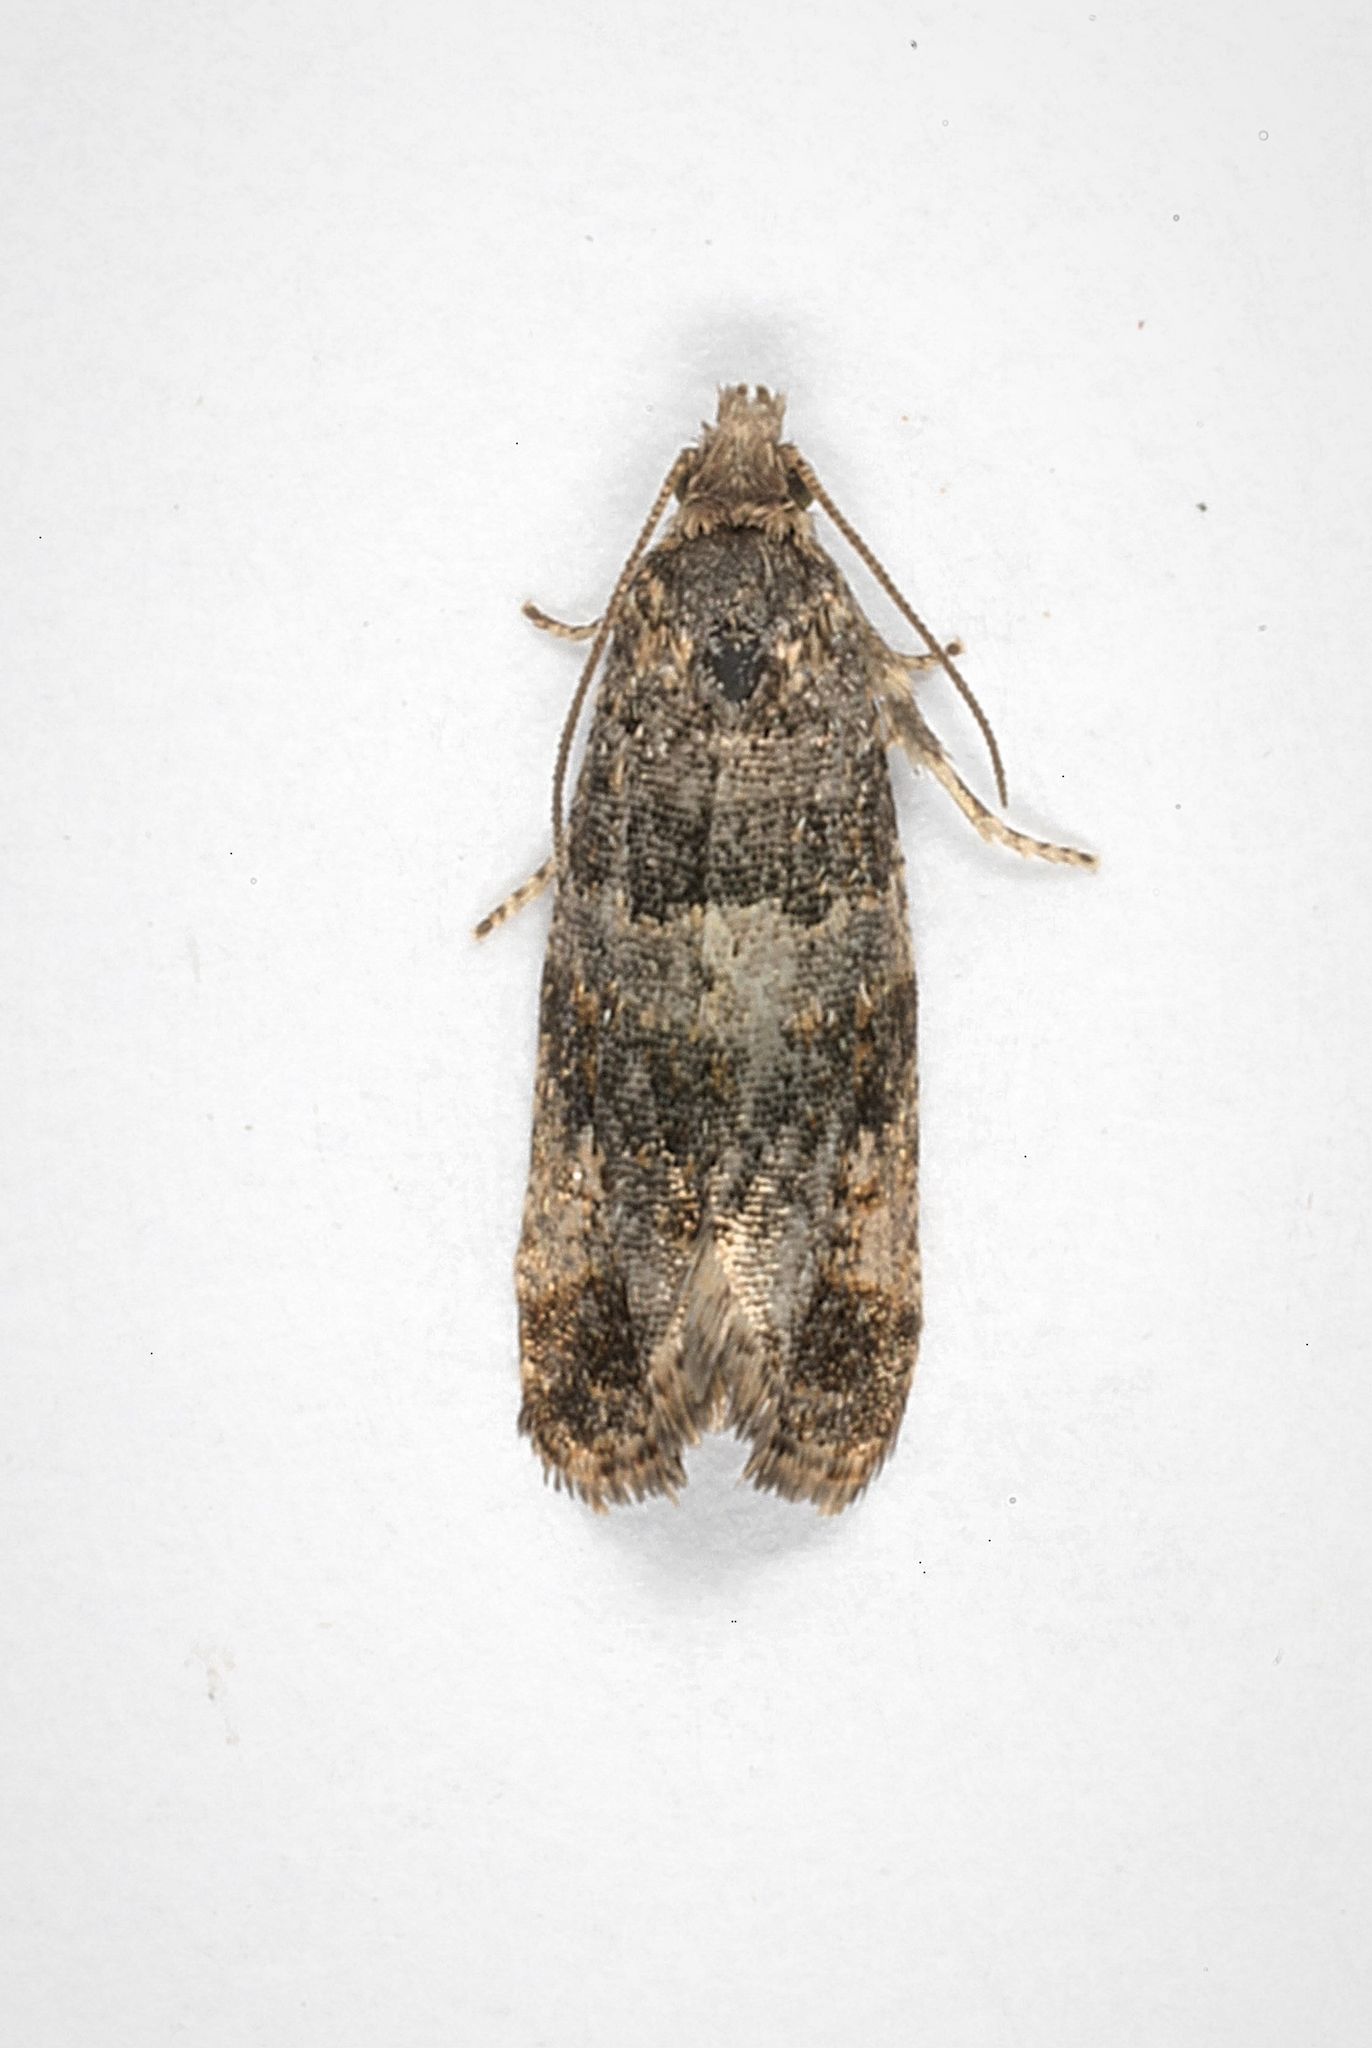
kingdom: Animalia
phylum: Arthropoda
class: Insecta
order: Lepidoptera
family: Tortricidae
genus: Lobesia
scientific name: Lobesia fuligana
